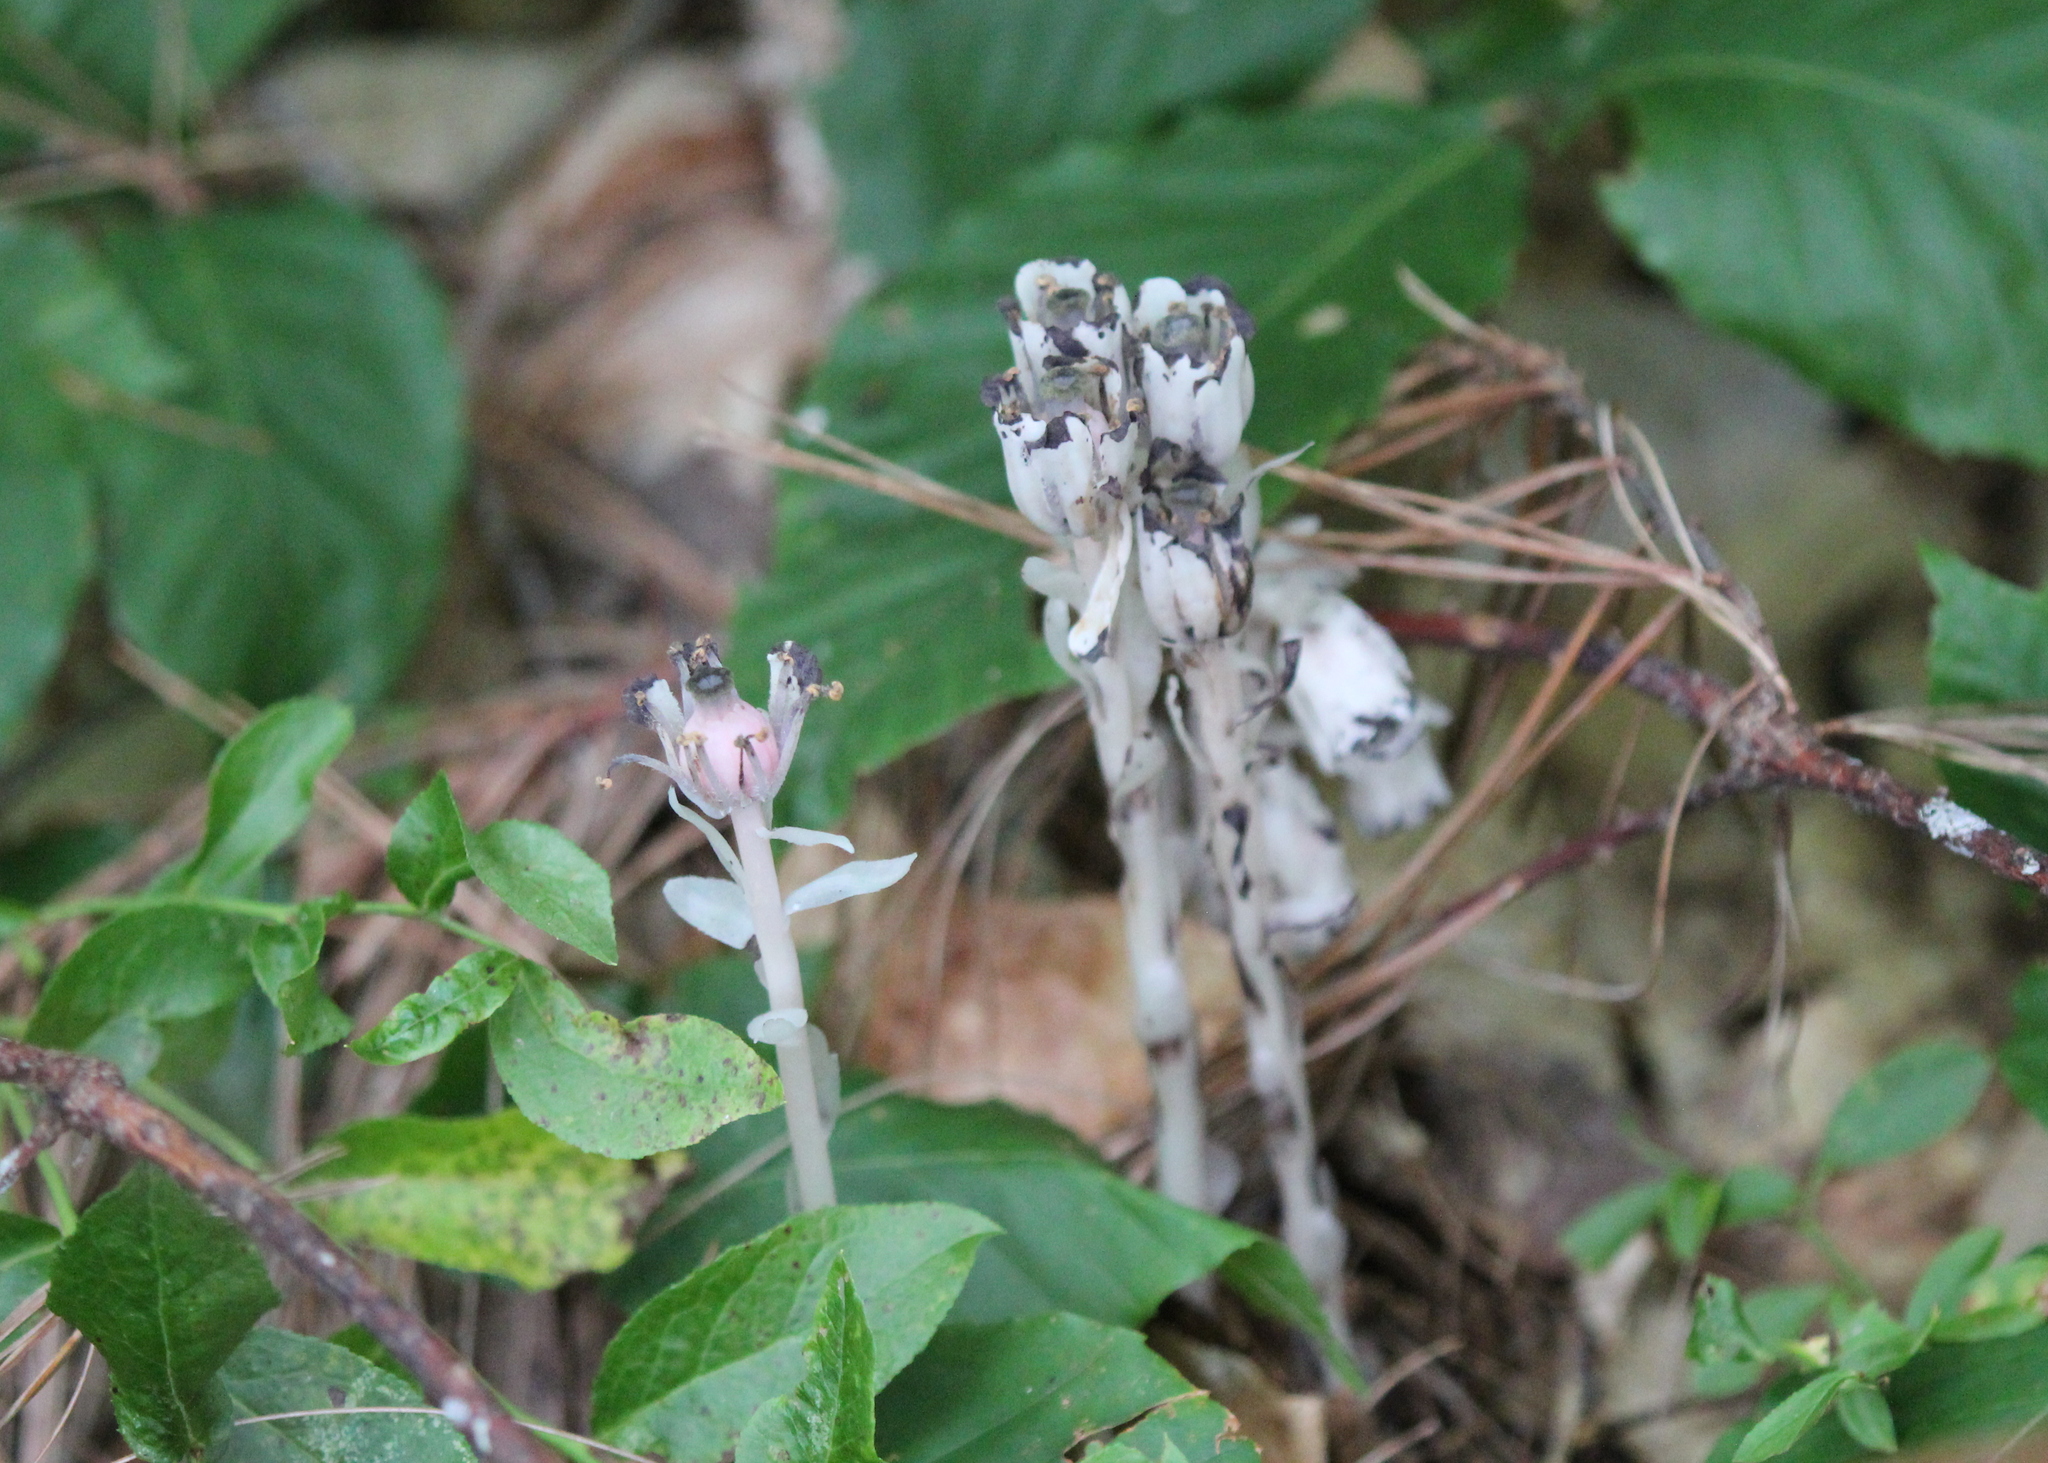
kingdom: Plantae
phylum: Tracheophyta
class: Magnoliopsida
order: Ericales
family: Ericaceae
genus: Monotropa
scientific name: Monotropa uniflora
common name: Convulsion root
